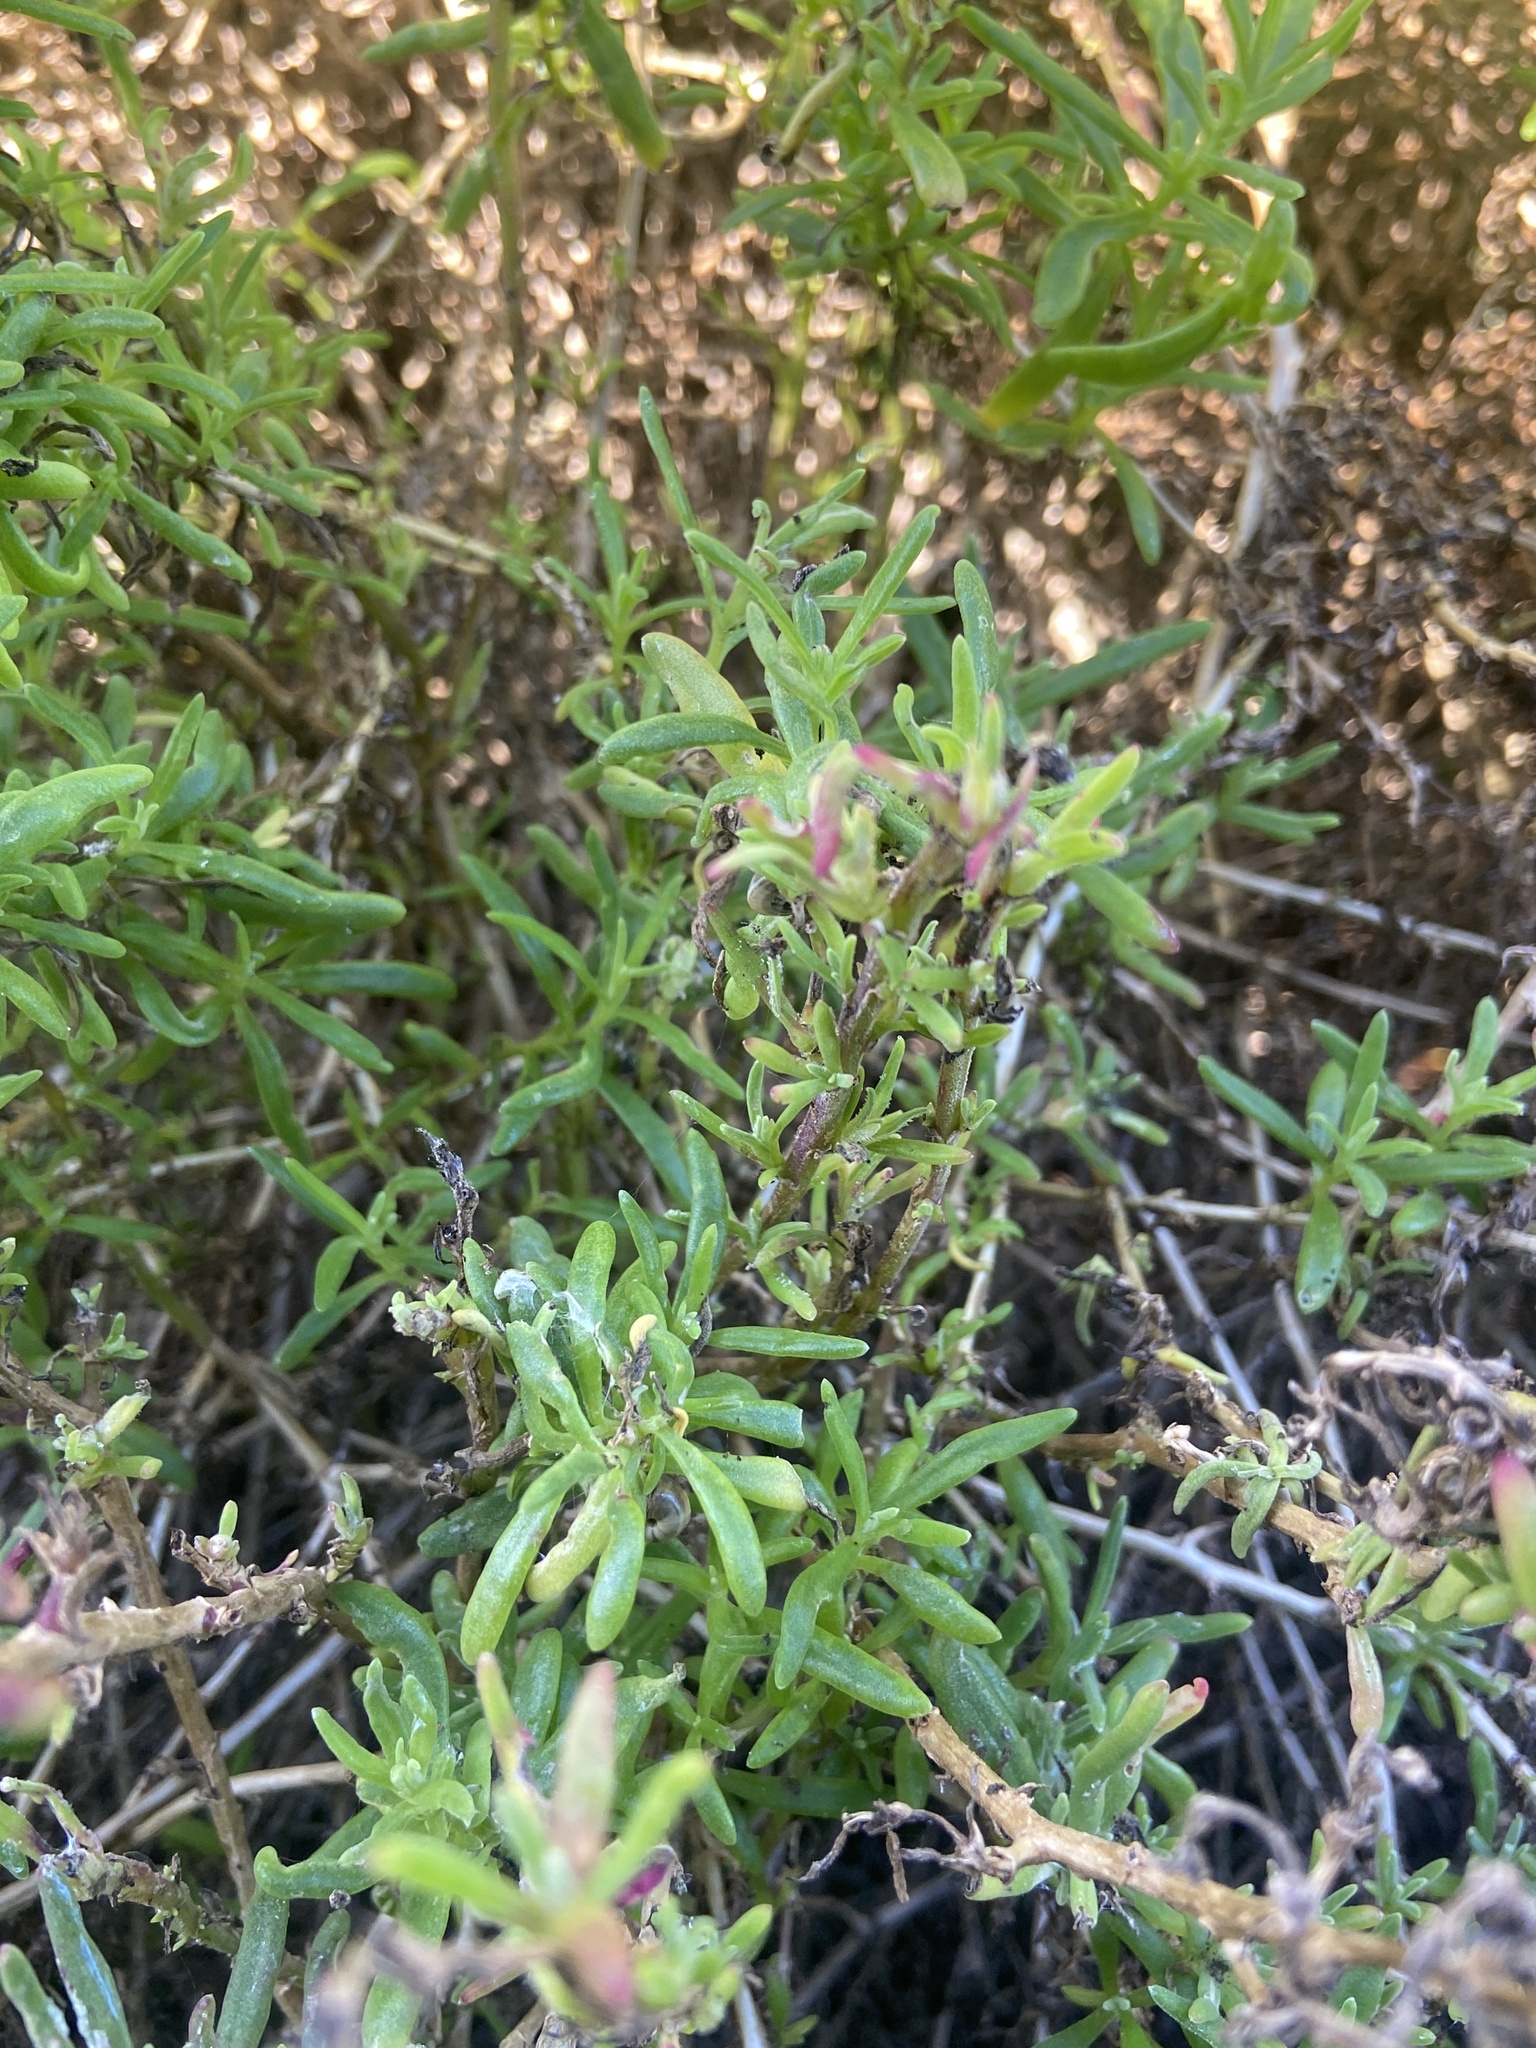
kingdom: Plantae
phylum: Tracheophyta
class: Magnoliopsida
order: Caryophyllales
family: Aizoaceae
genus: Tetragonia
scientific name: Tetragonia fruticosa
